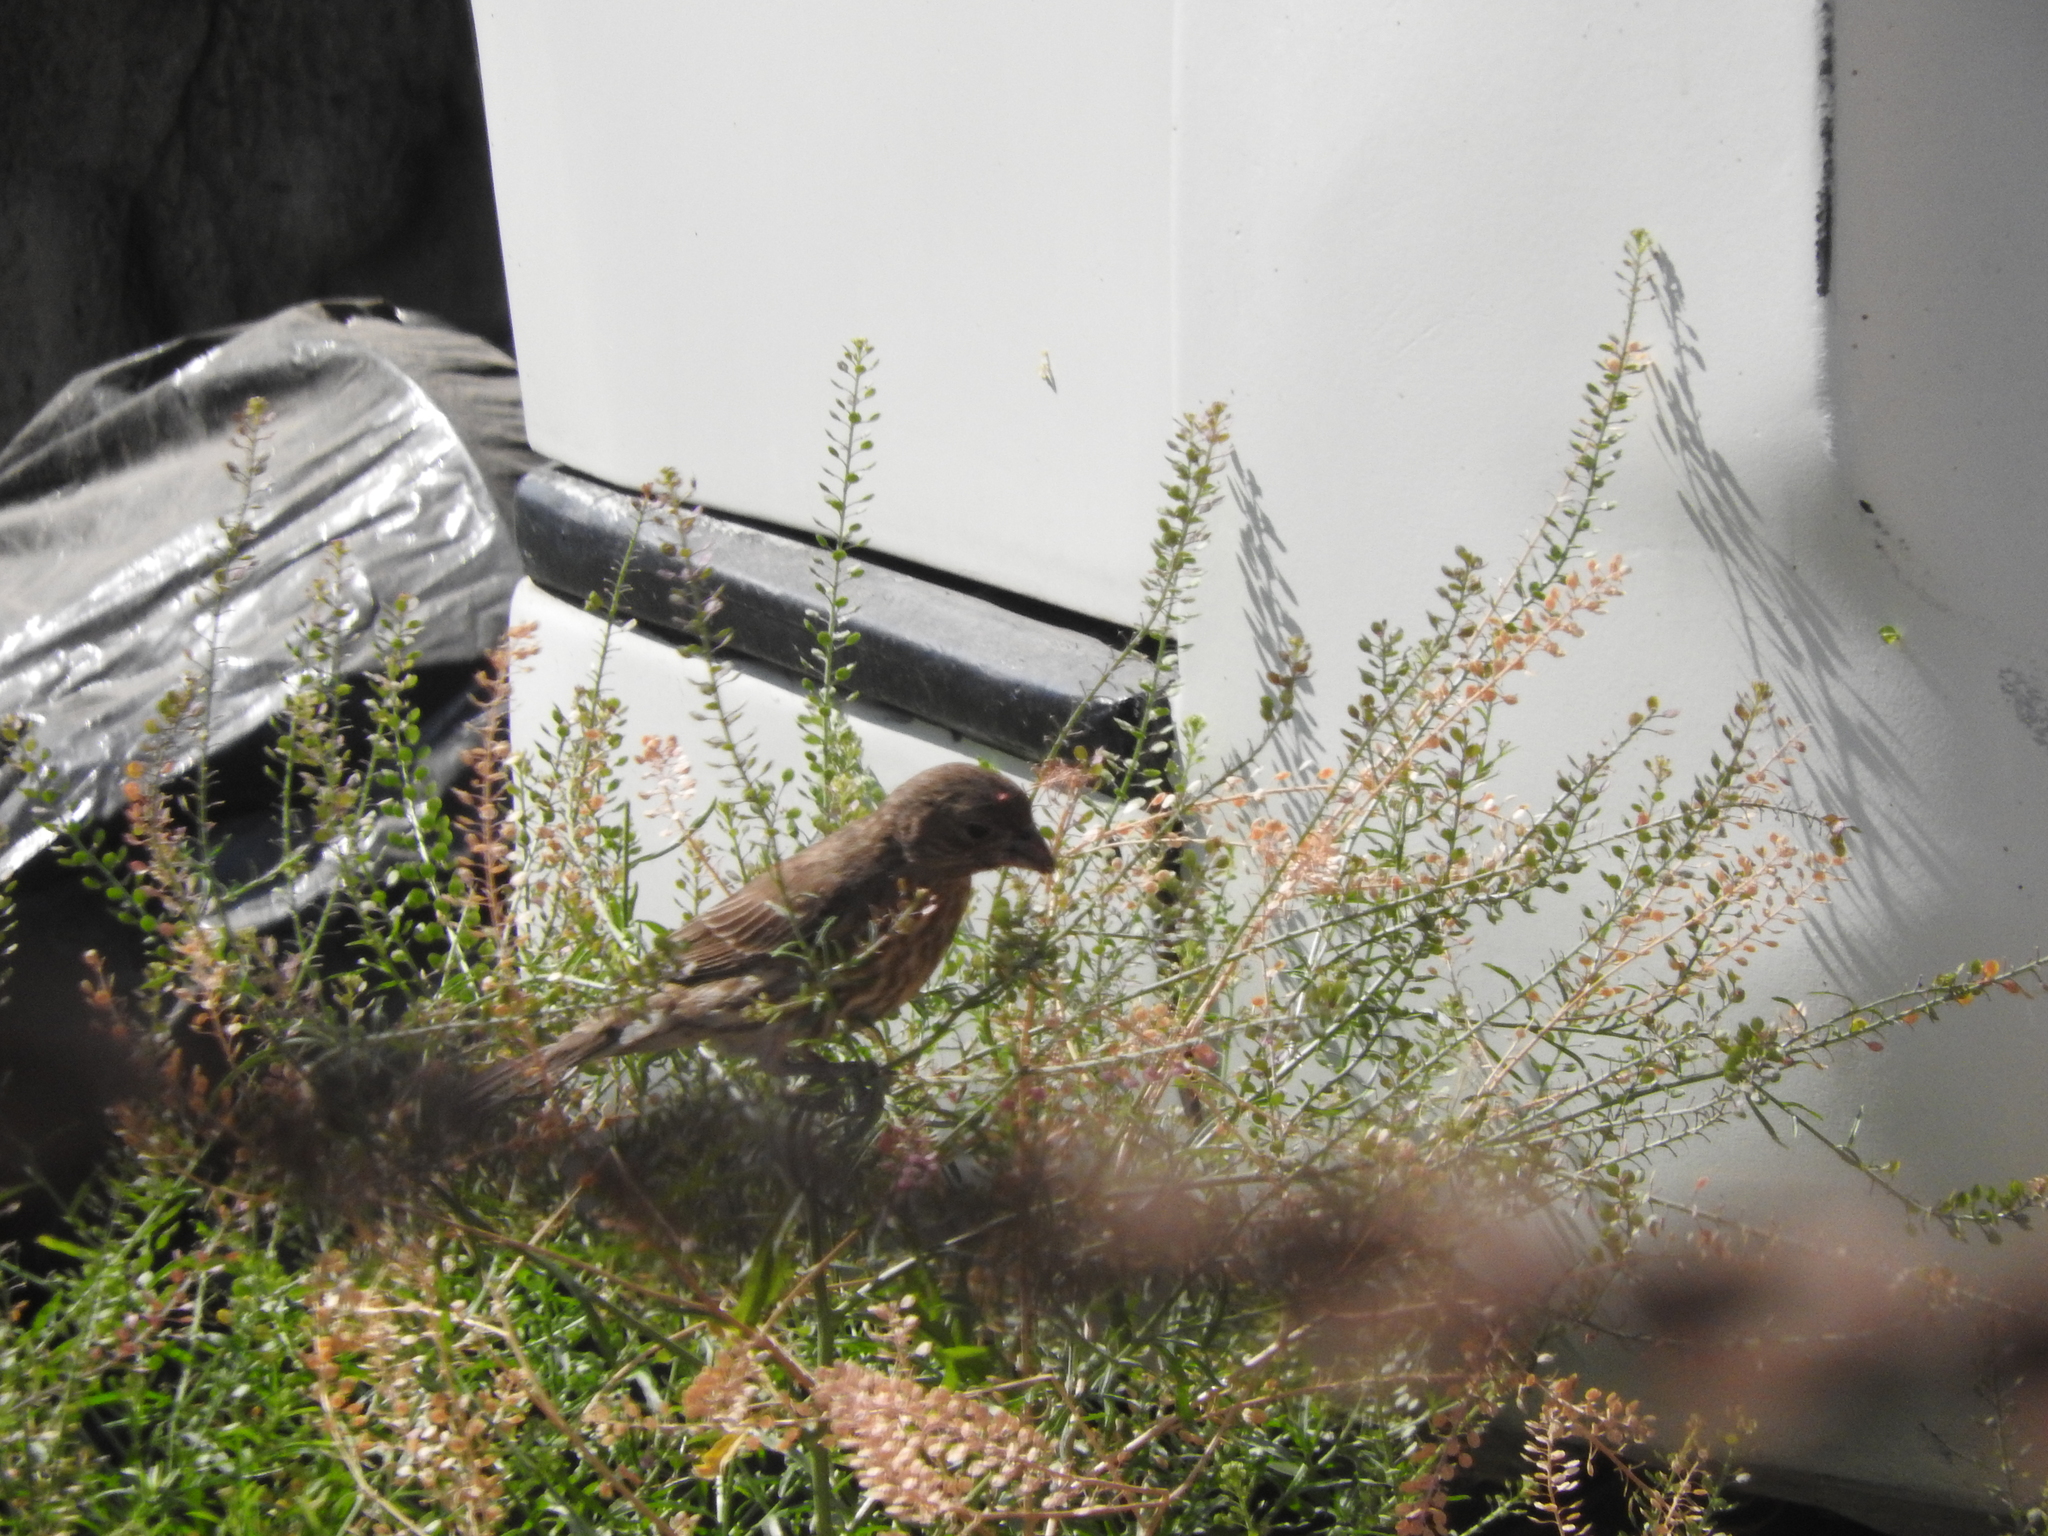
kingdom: Animalia
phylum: Chordata
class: Aves
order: Passeriformes
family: Fringillidae
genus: Haemorhous
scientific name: Haemorhous mexicanus
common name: House finch
